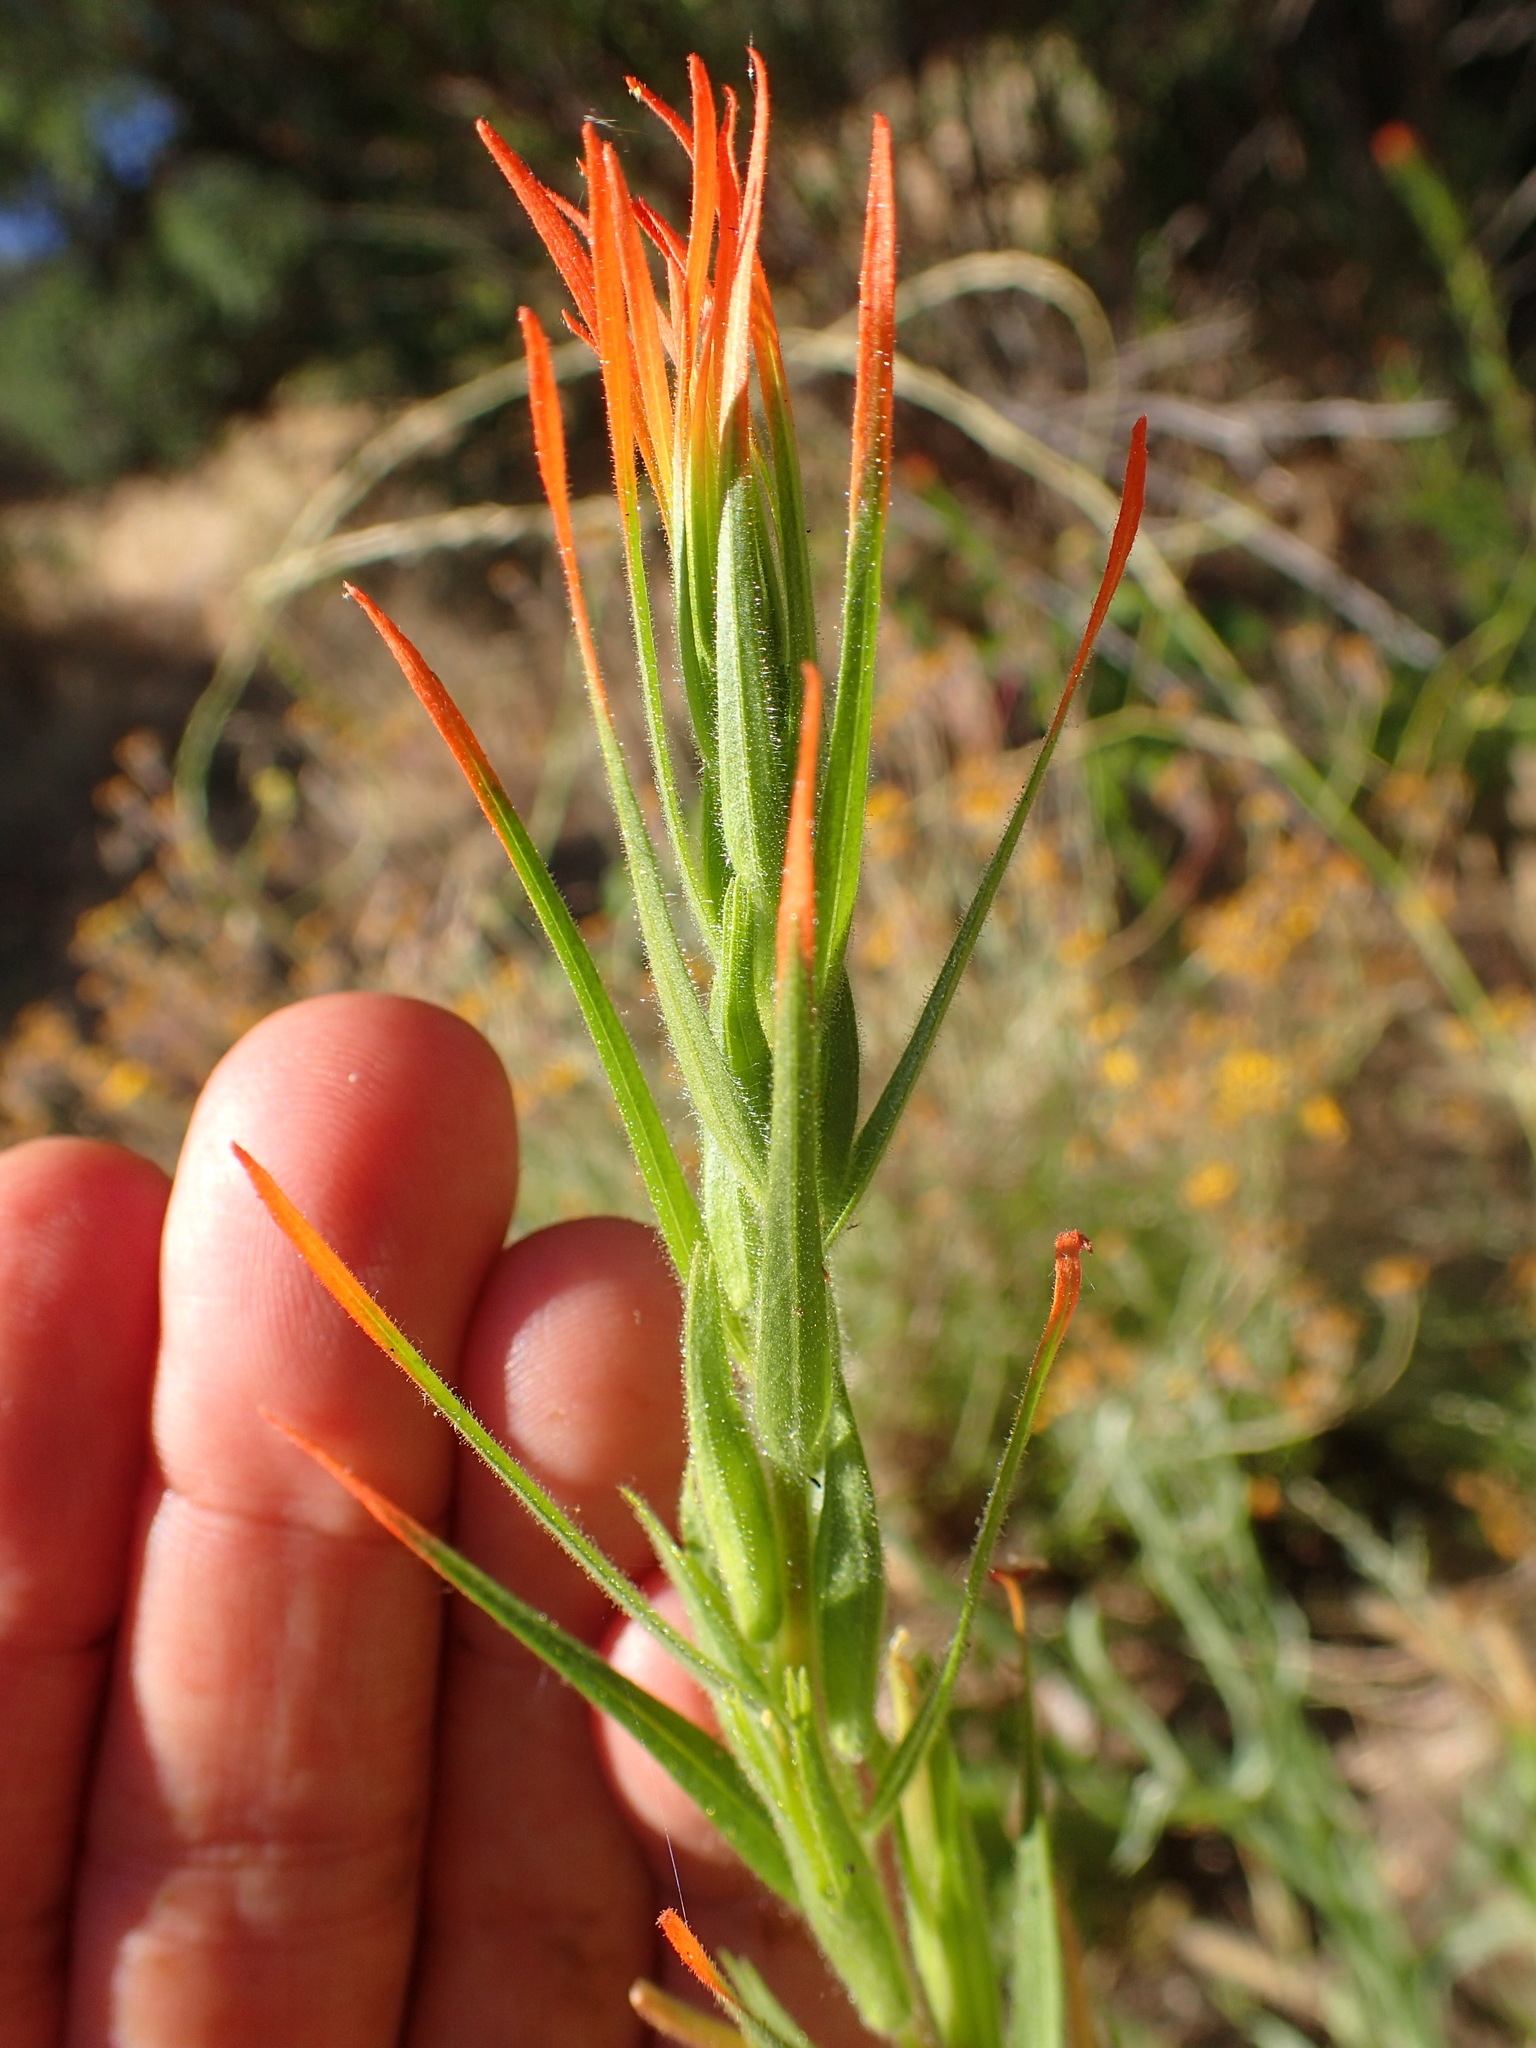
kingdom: Plantae
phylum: Tracheophyta
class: Magnoliopsida
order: Lamiales
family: Orobanchaceae
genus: Castilleja
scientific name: Castilleja minor
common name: Seep paintbrush
